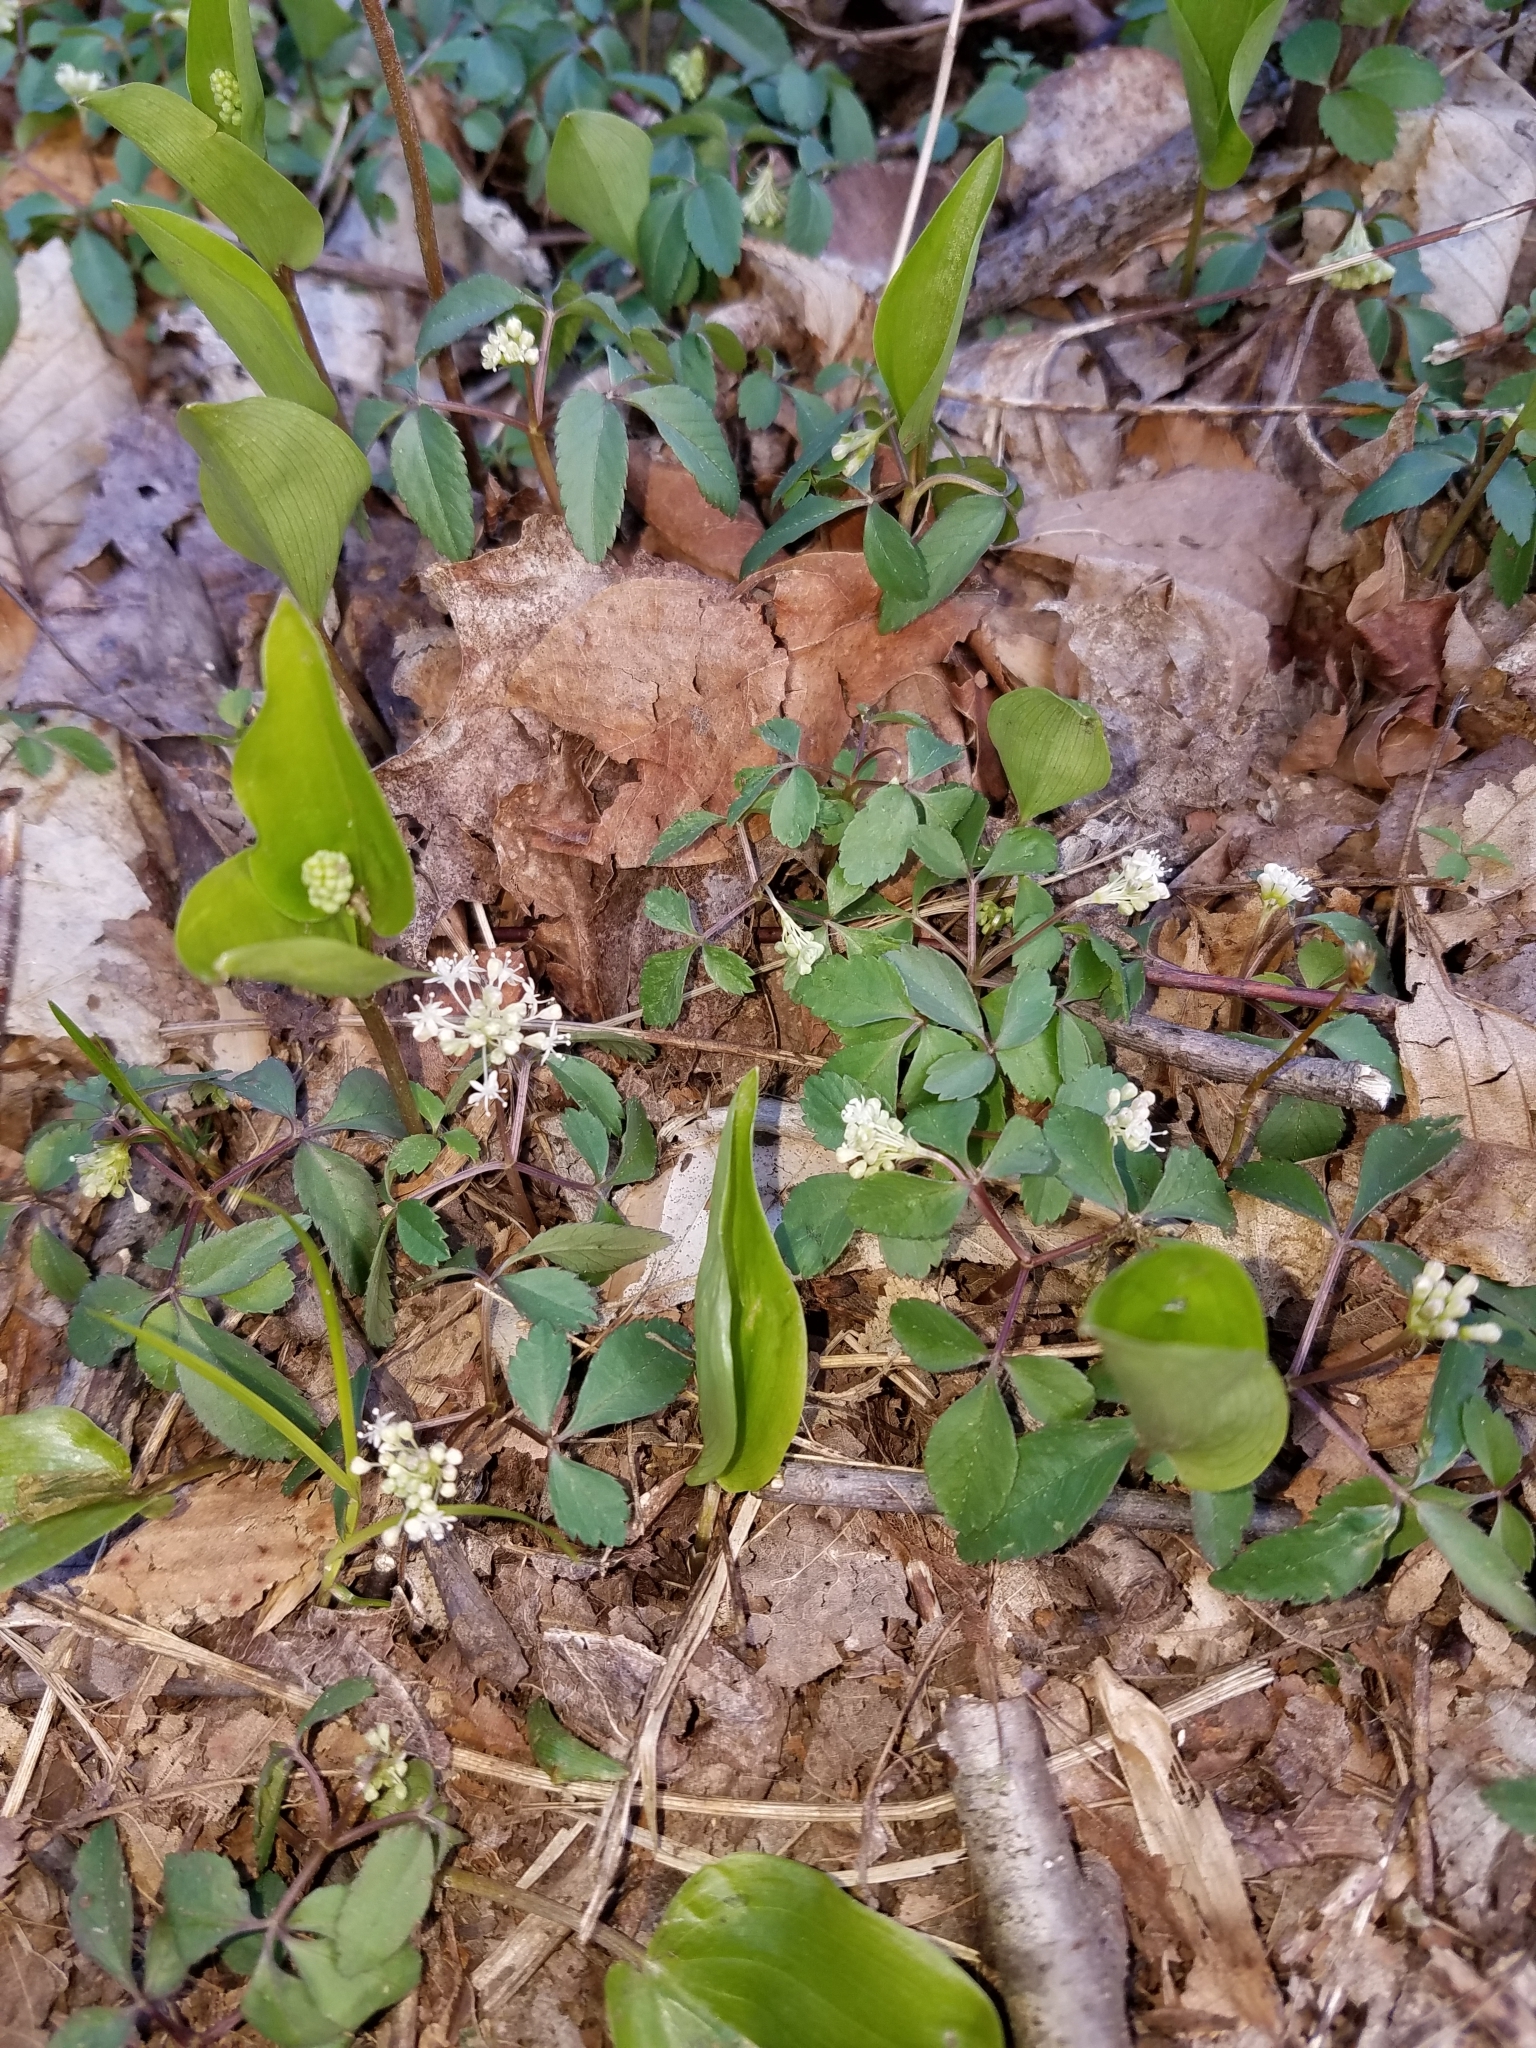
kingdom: Plantae
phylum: Tracheophyta
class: Liliopsida
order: Asparagales
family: Asparagaceae
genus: Maianthemum
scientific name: Maianthemum canadense
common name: False lily-of-the-valley
